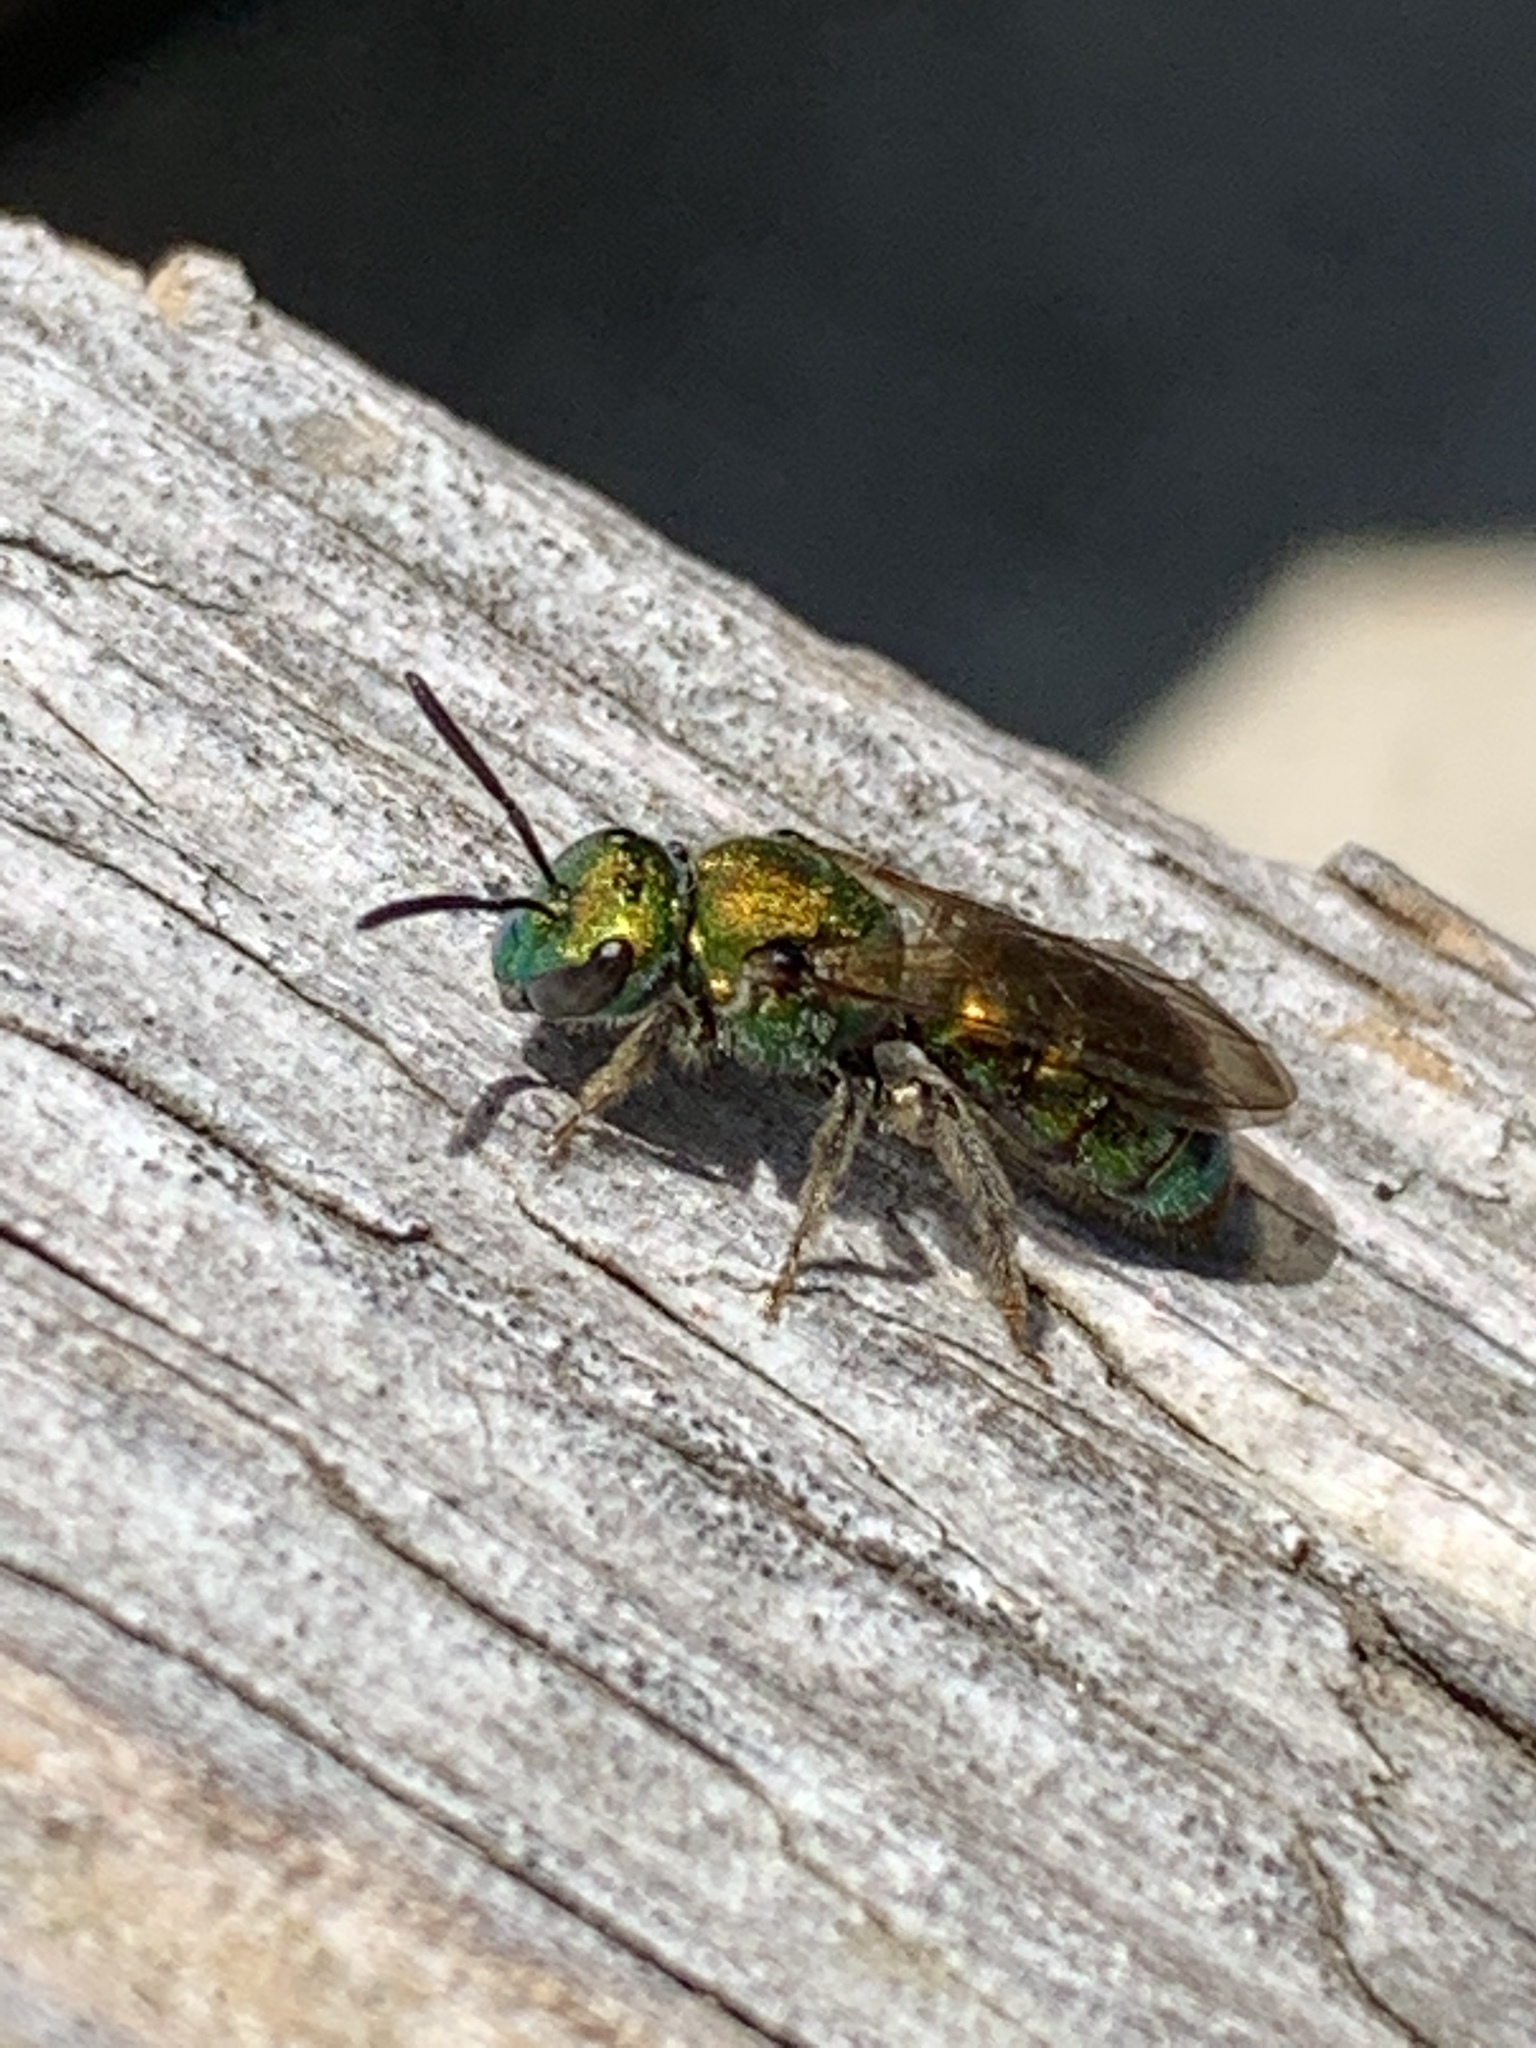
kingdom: Animalia
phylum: Arthropoda
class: Insecta
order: Hymenoptera
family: Halictidae
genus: Augochlora
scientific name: Augochlora pura
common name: Pure green sweat bee
